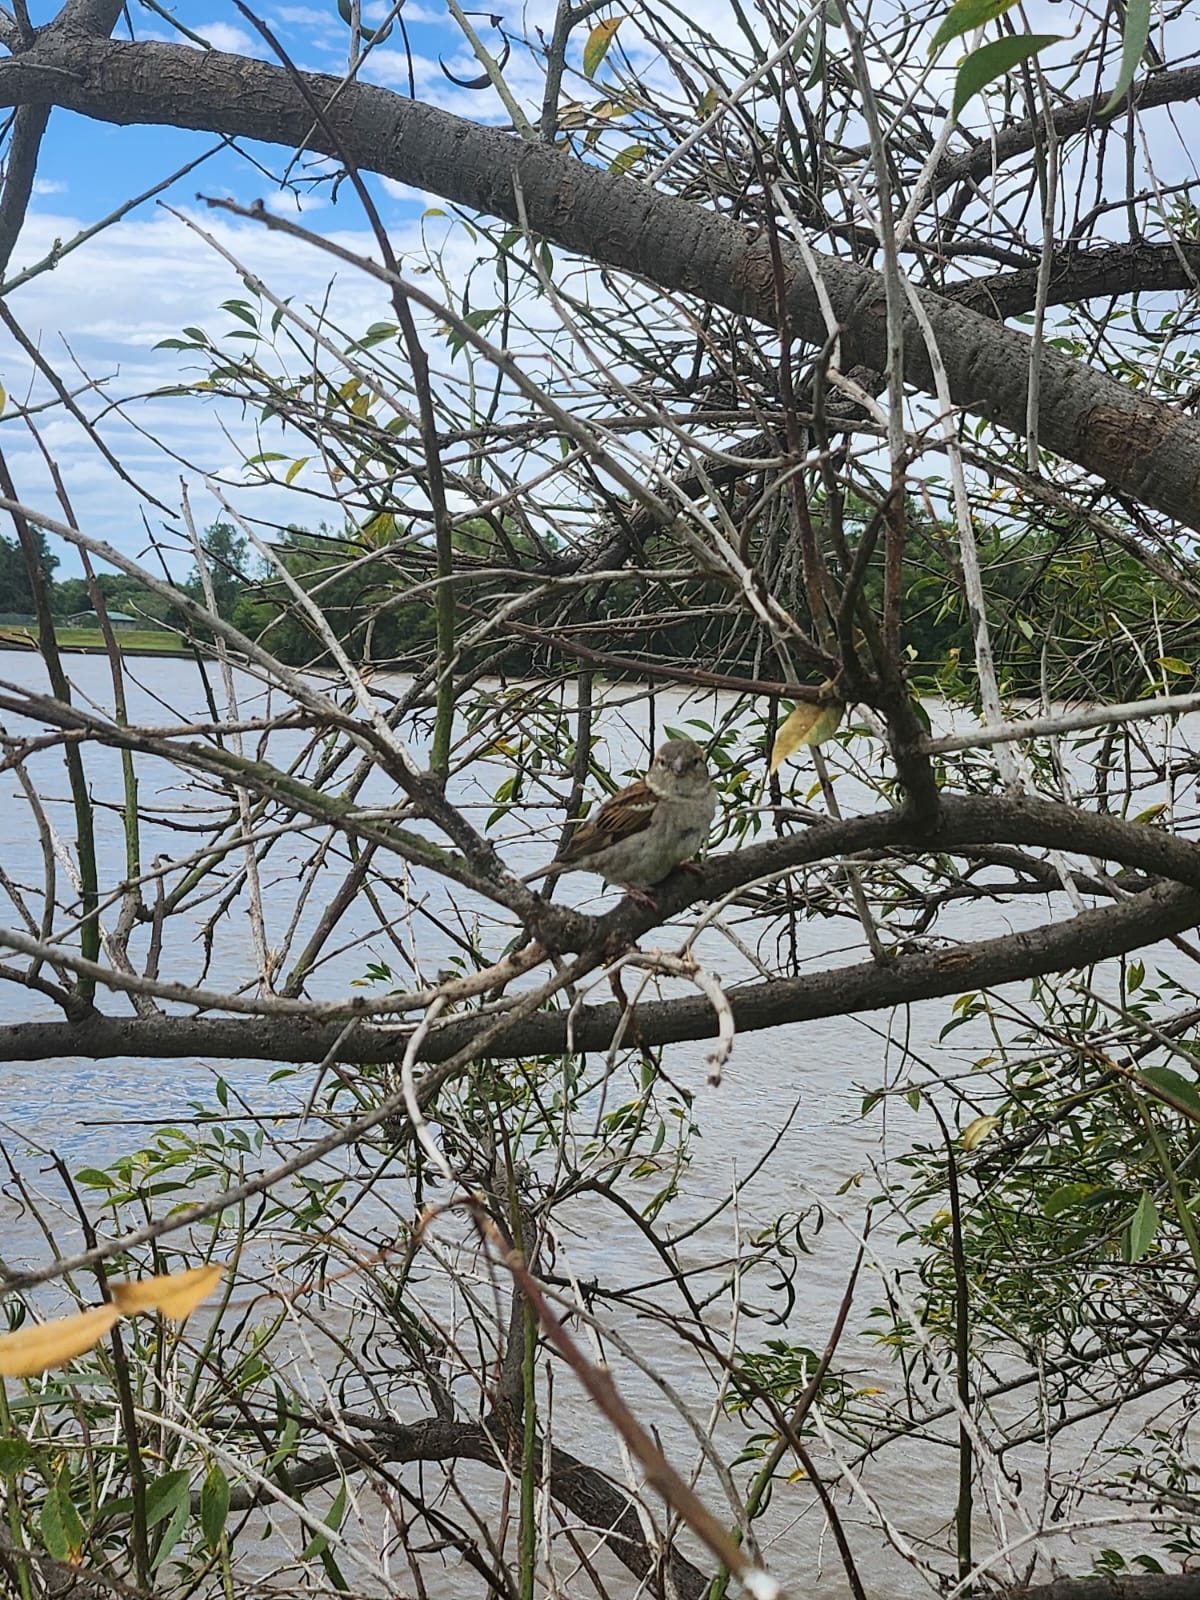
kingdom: Animalia
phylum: Chordata
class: Aves
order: Passeriformes
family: Passeridae
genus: Passer
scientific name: Passer domesticus
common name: House sparrow
